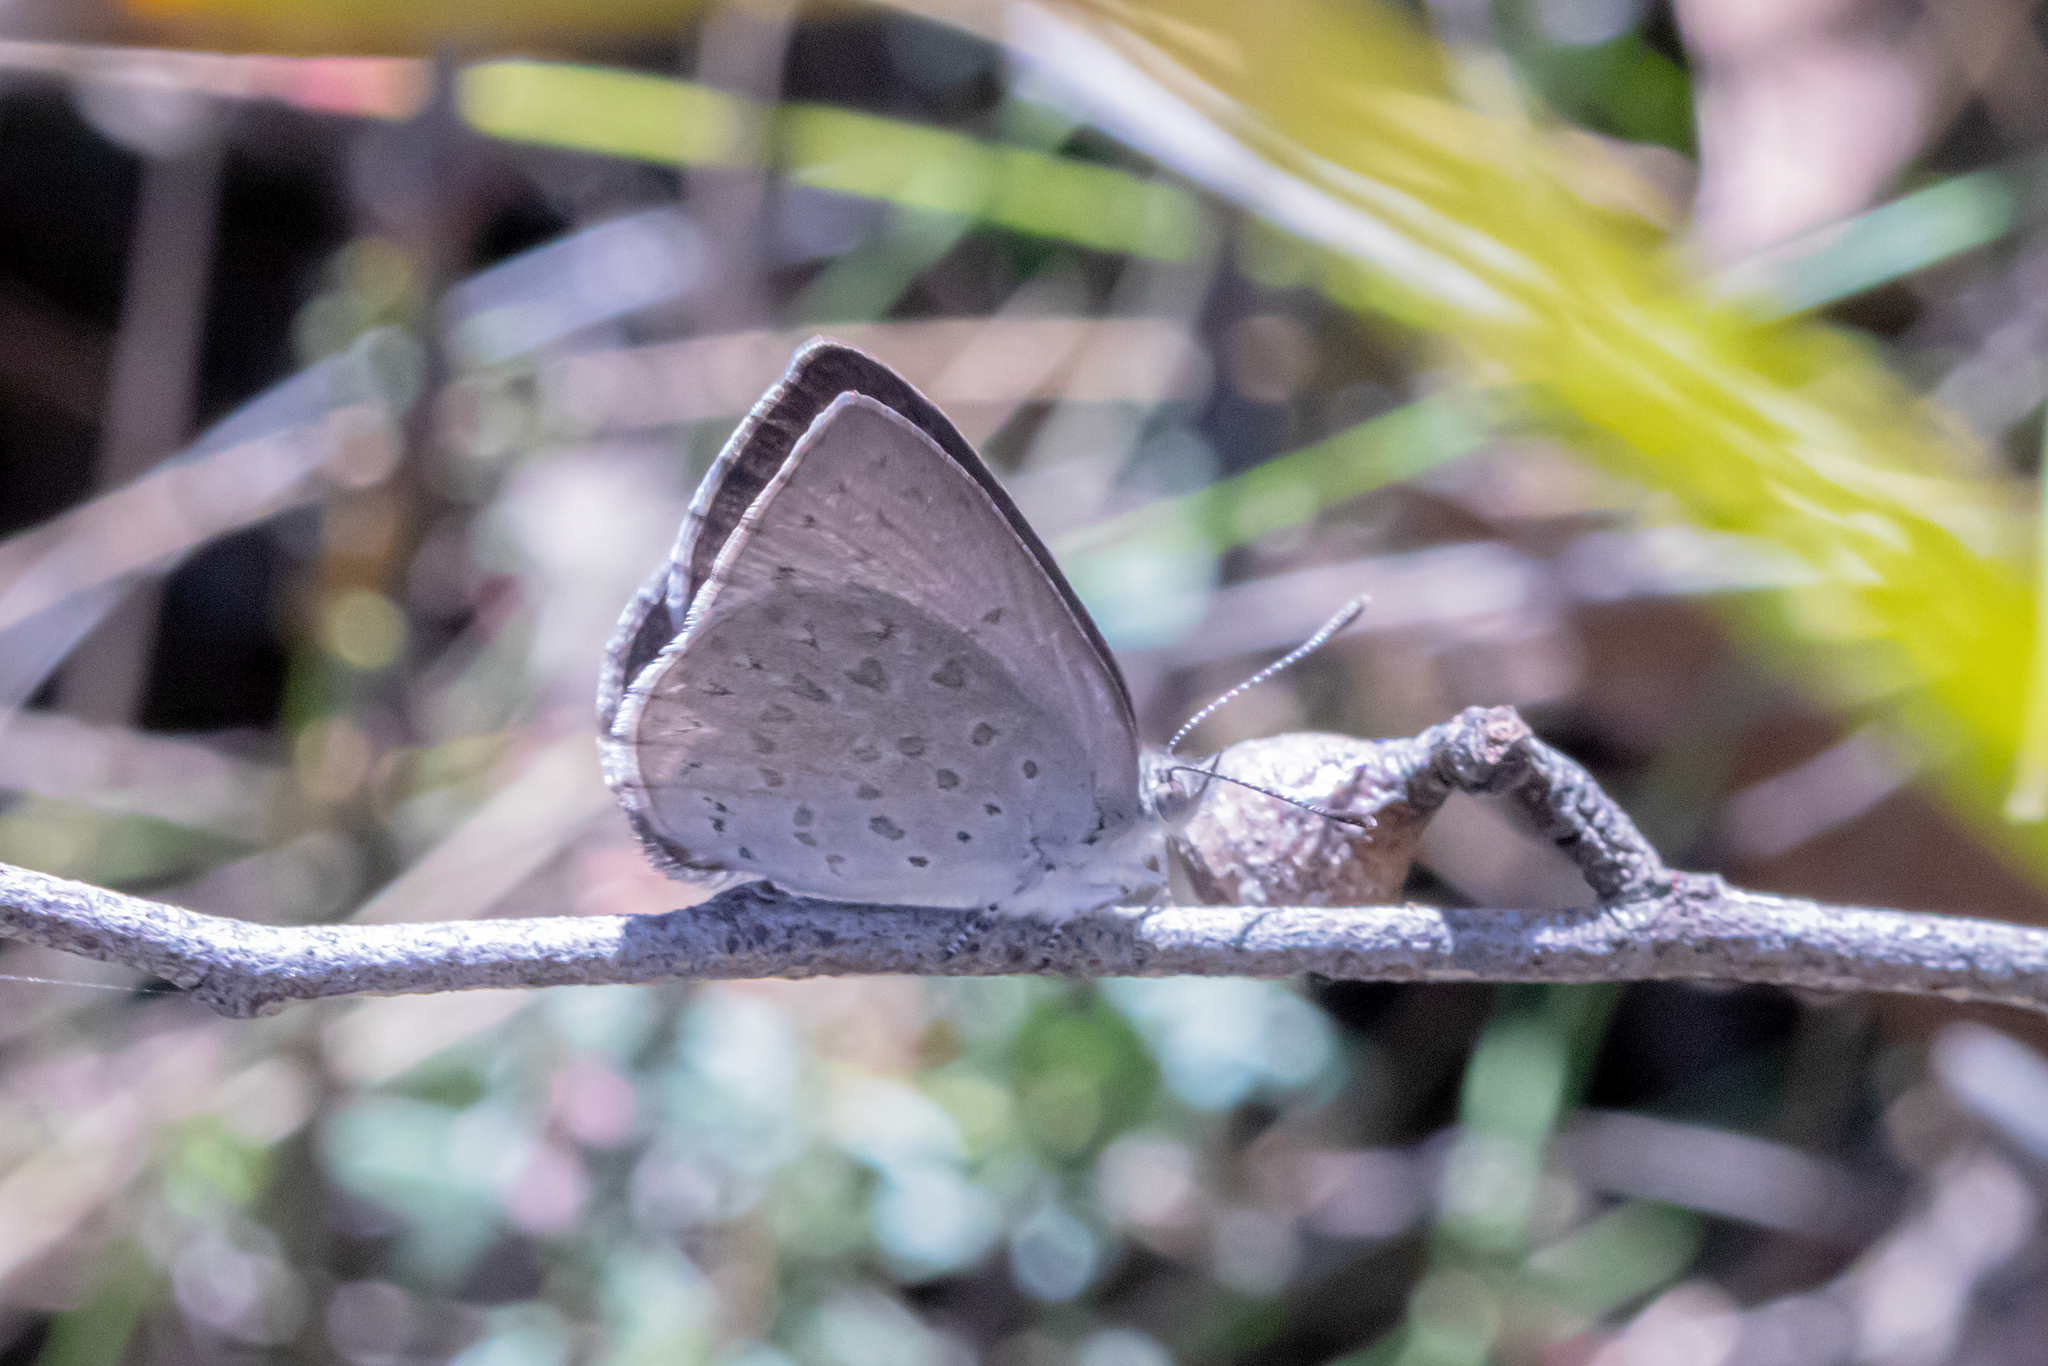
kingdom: Animalia
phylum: Arthropoda
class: Insecta
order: Lepidoptera
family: Lycaenidae
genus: Candalides
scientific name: Candalides
